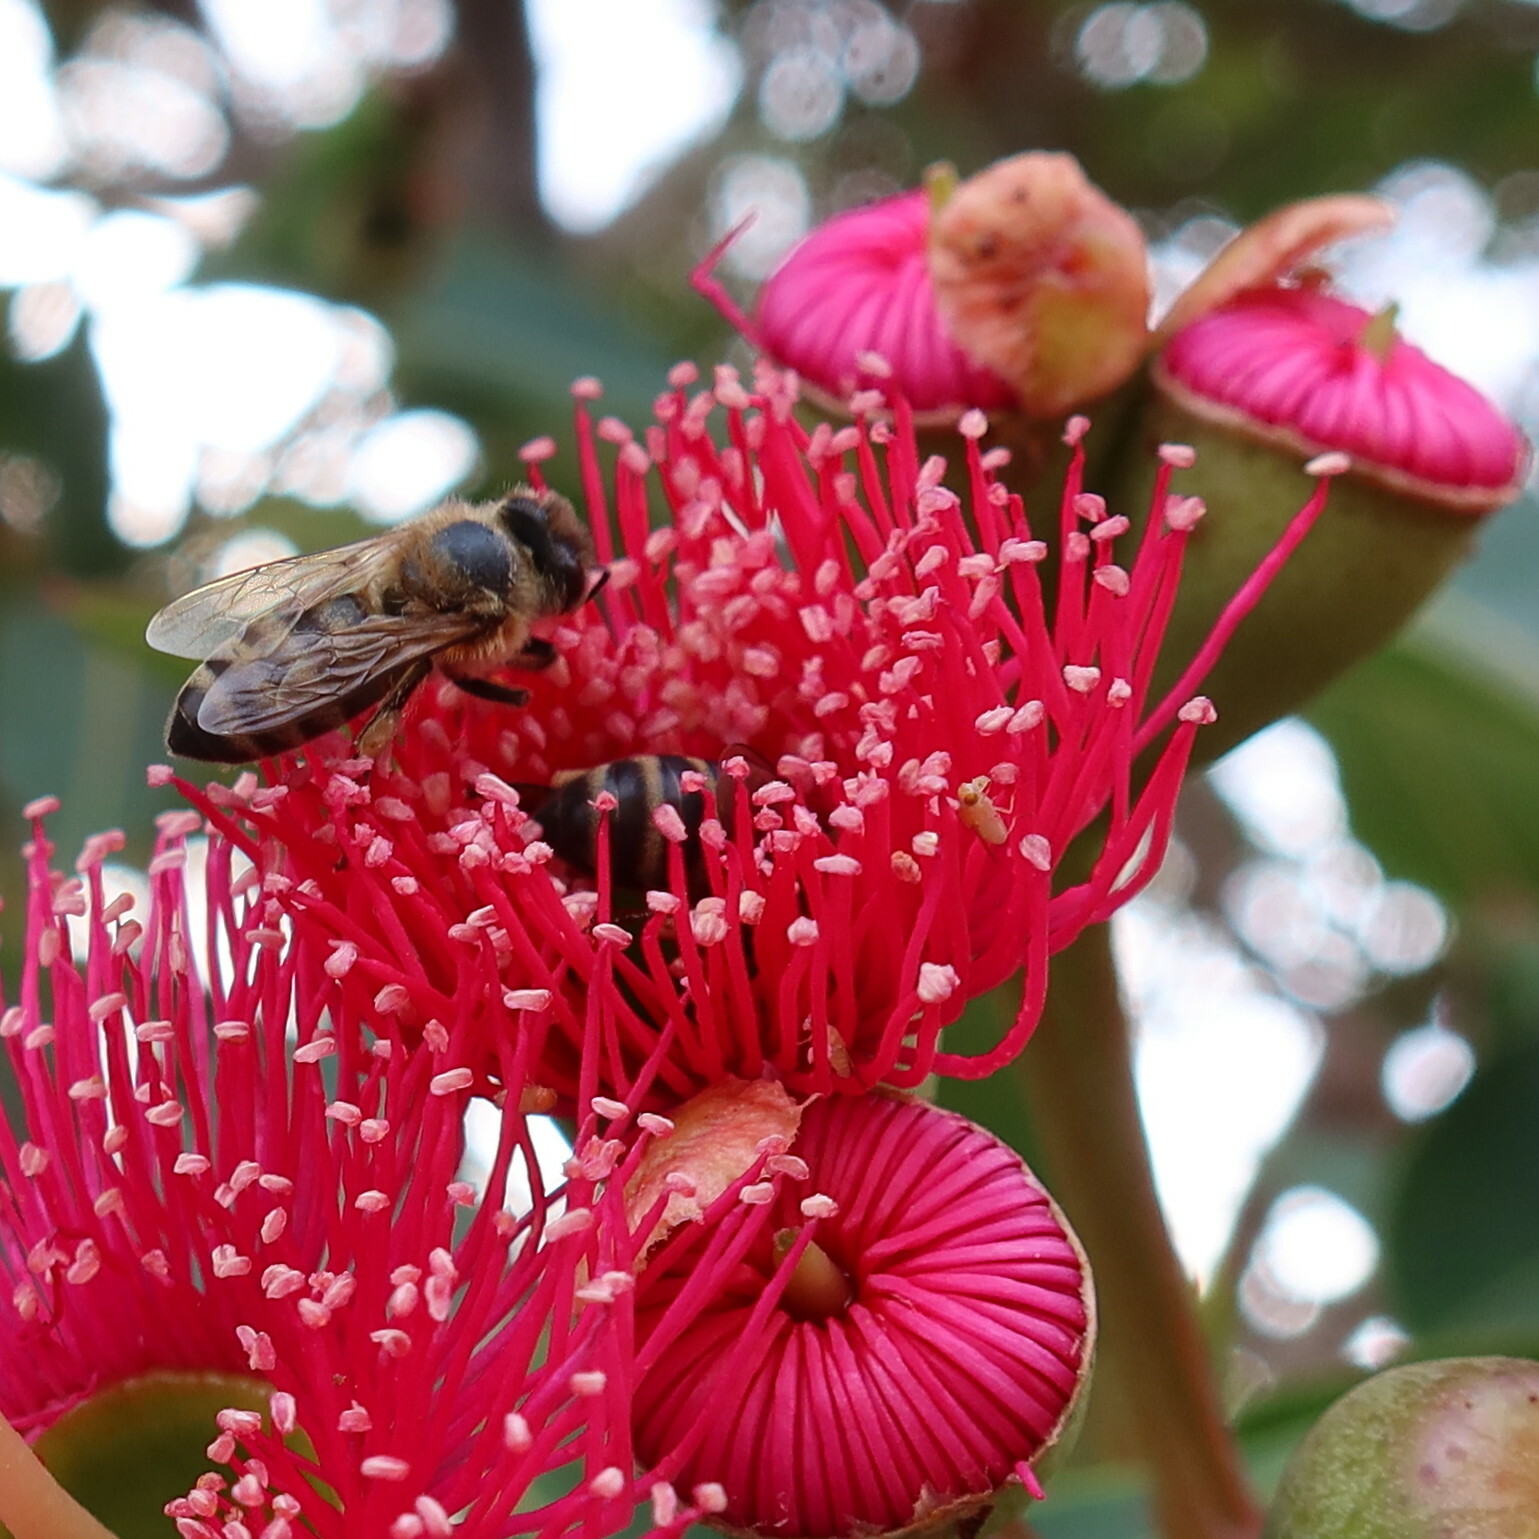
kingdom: Animalia
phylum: Arthropoda
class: Insecta
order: Hymenoptera
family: Apidae
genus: Apis
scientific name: Apis mellifera
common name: Honey bee
